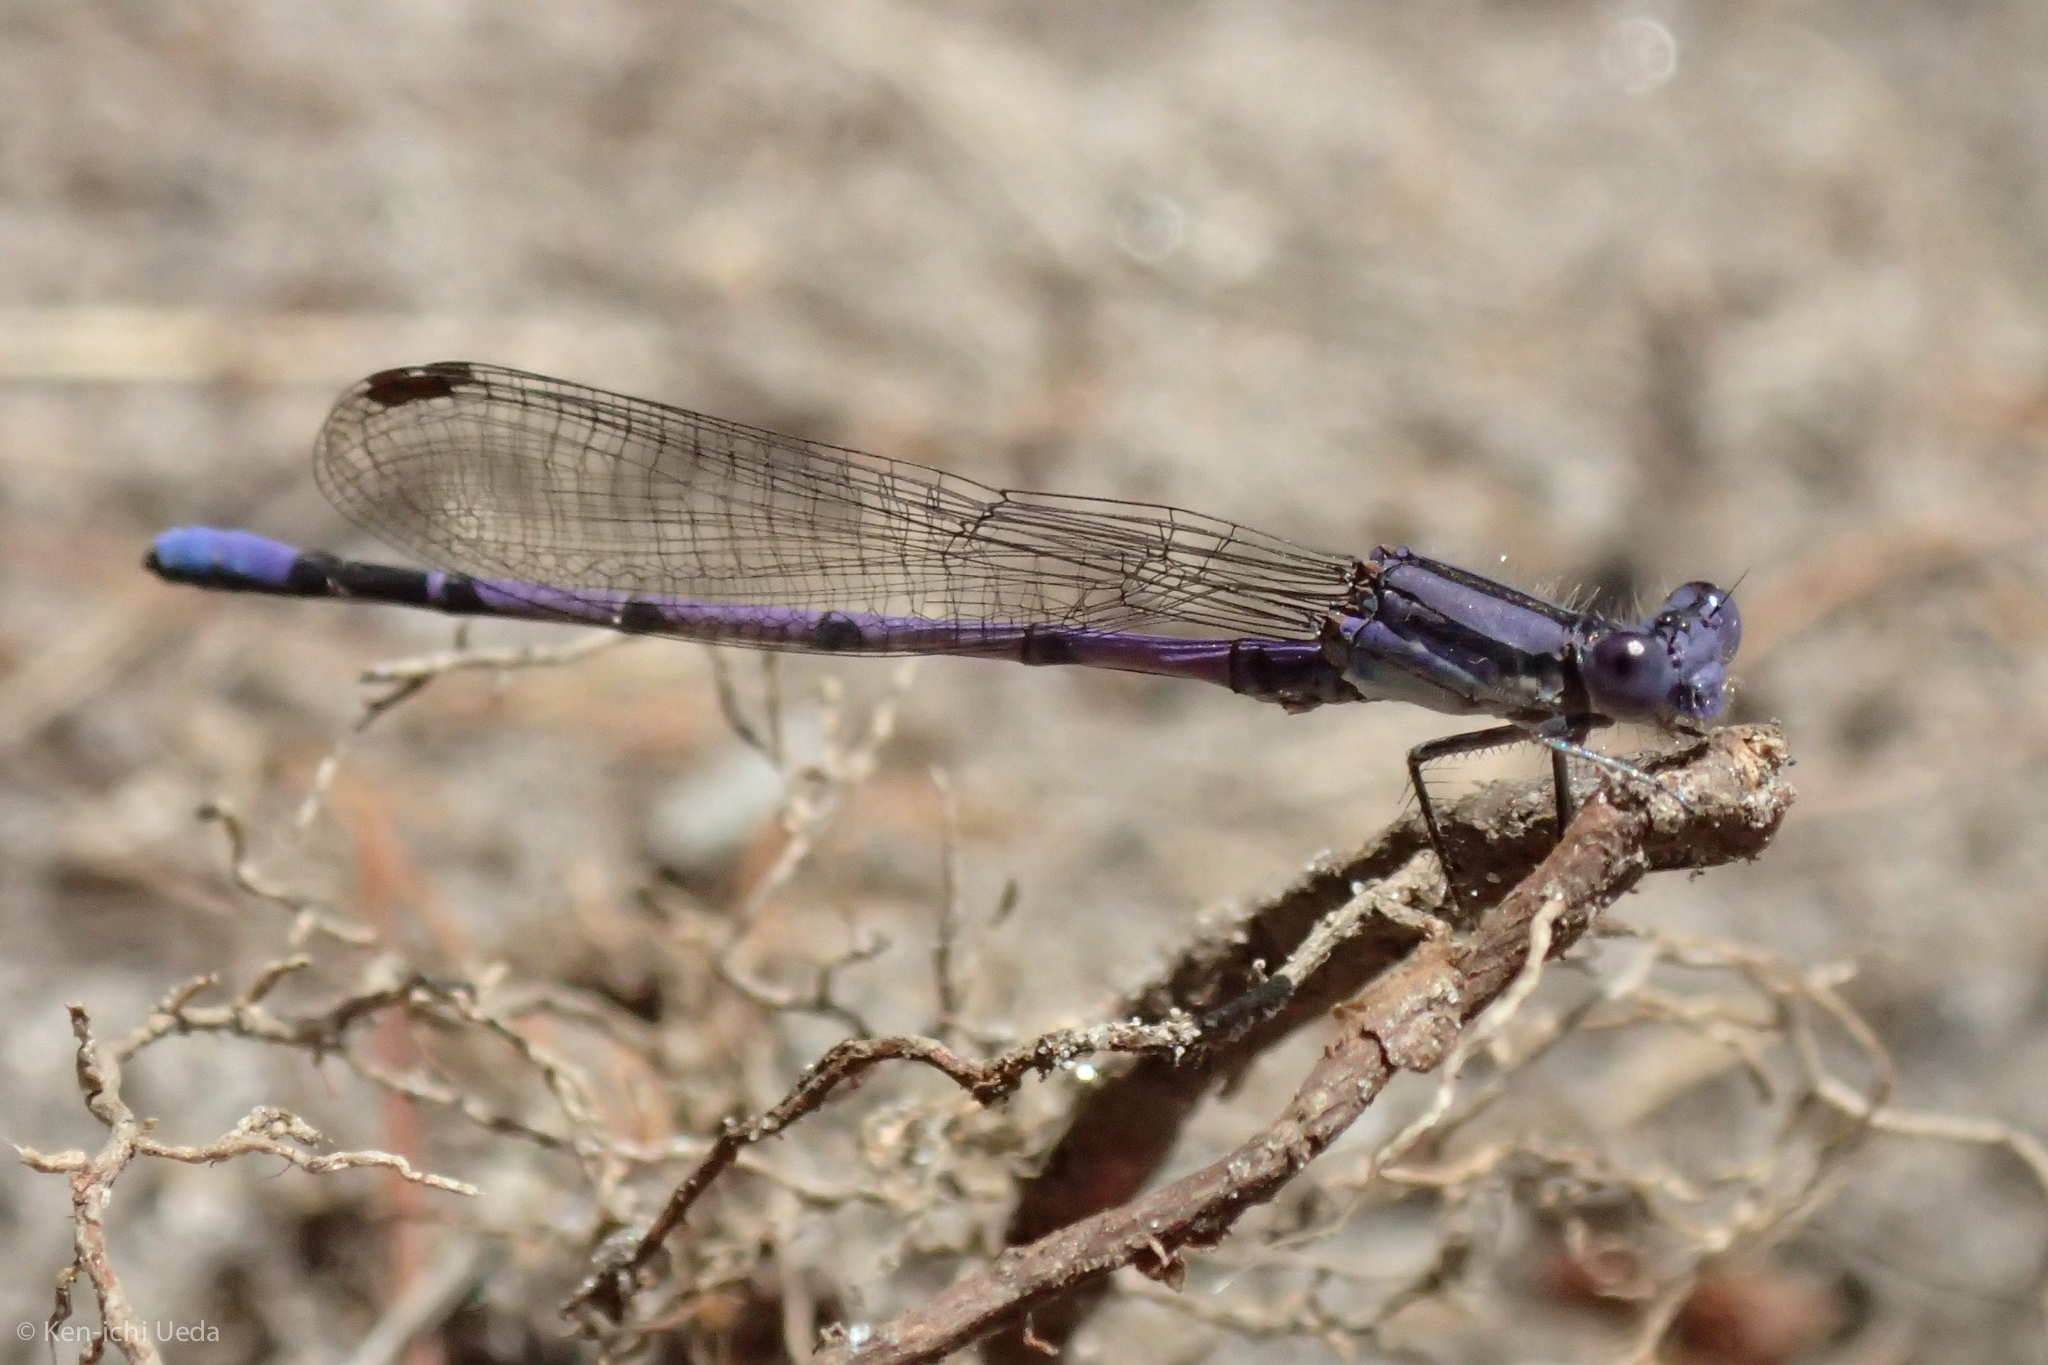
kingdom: Animalia
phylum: Arthropoda
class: Insecta
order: Odonata
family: Coenagrionidae
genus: Argia
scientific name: Argia fumipennis
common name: Variable dancer
